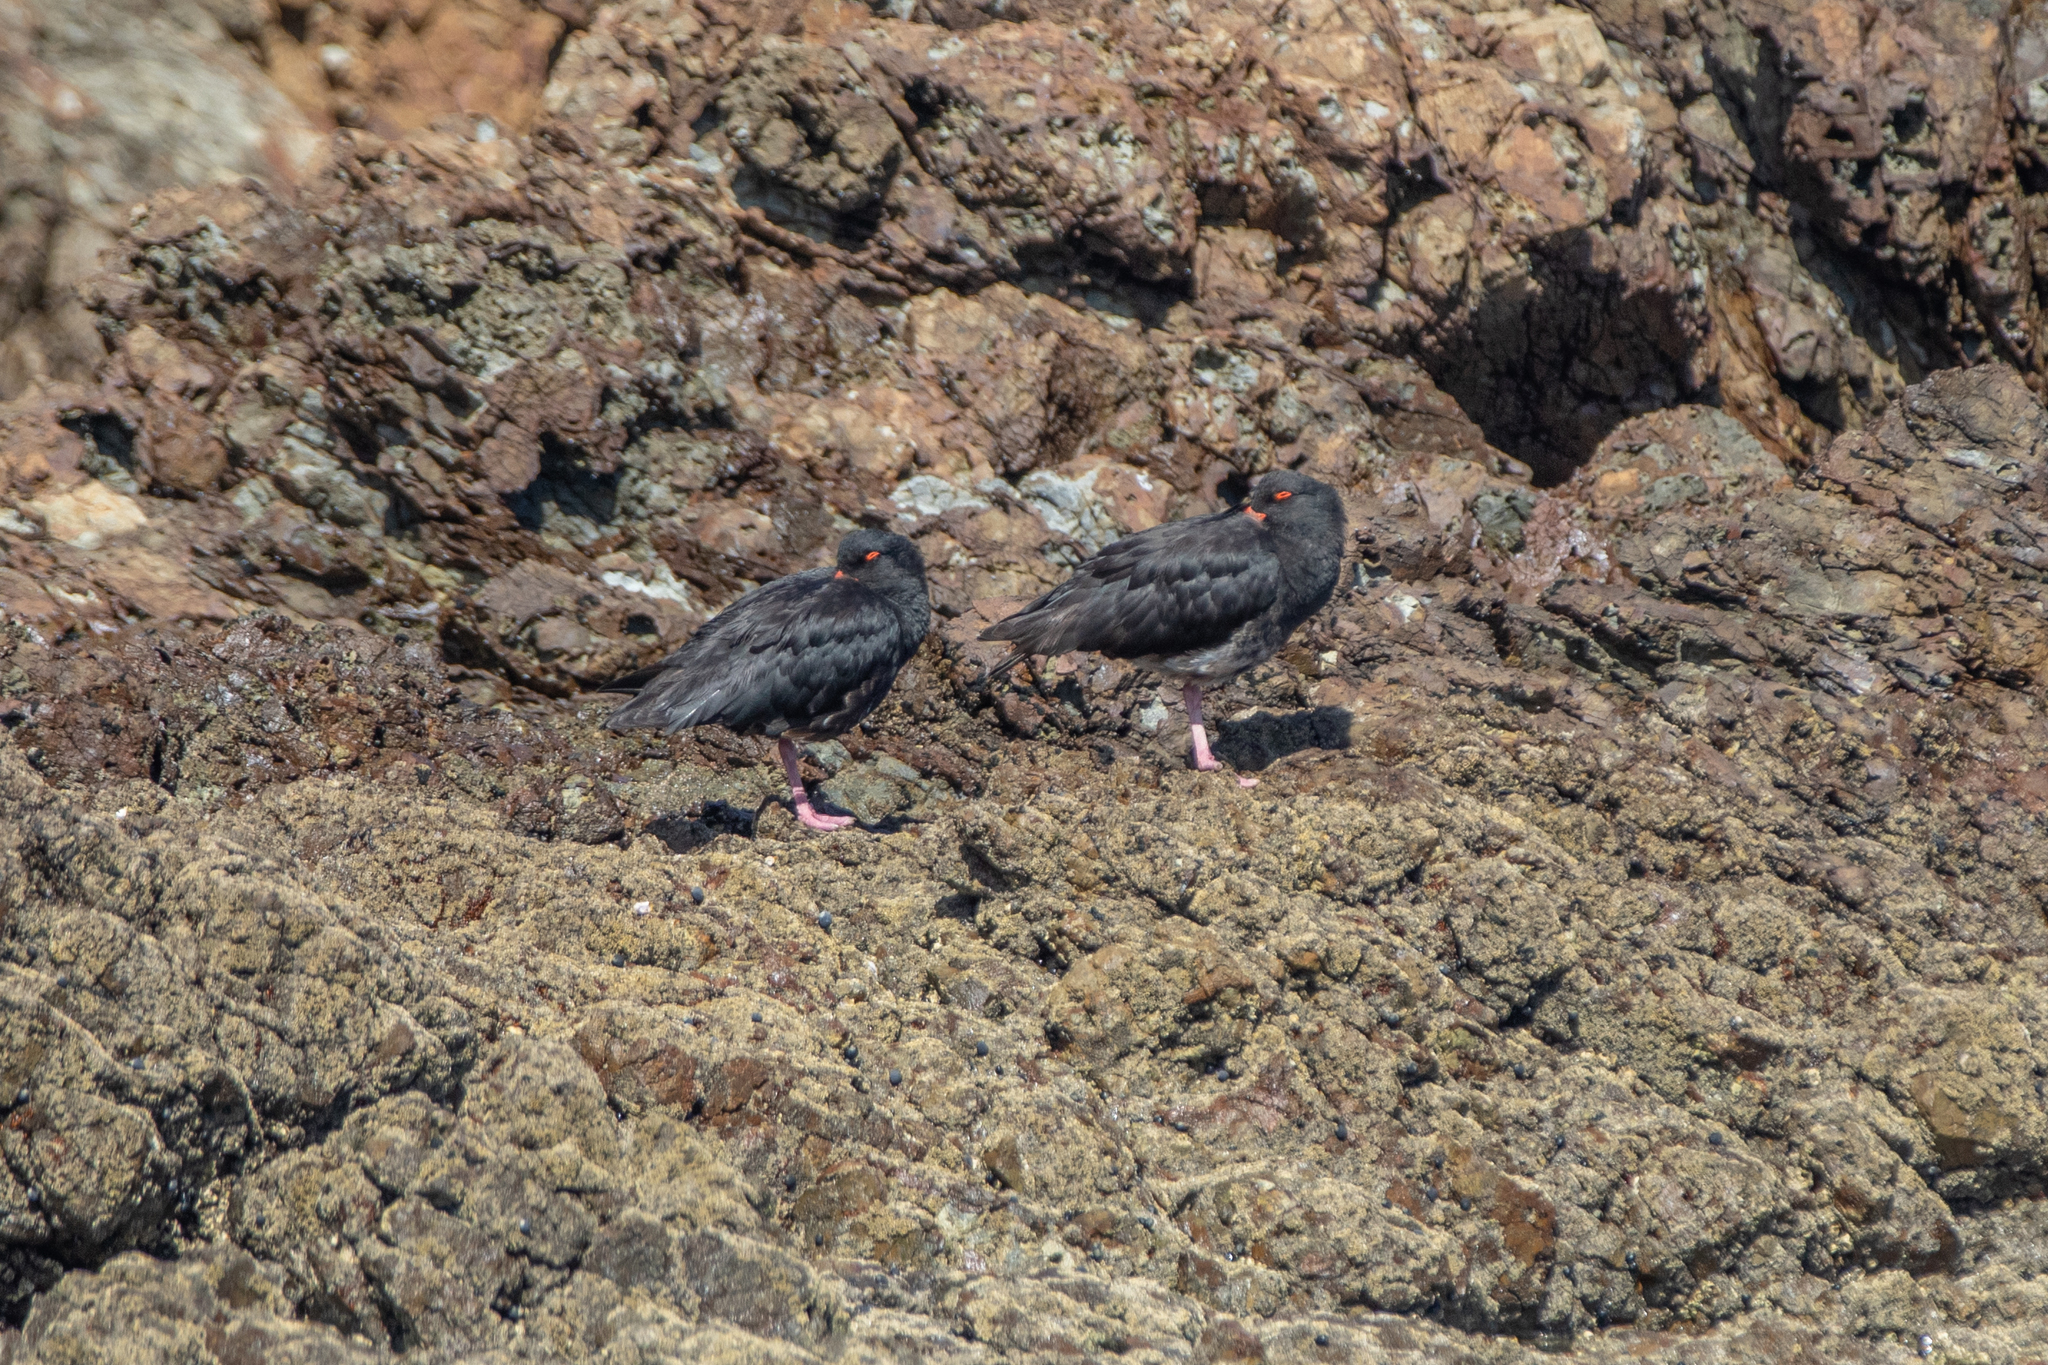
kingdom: Animalia
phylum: Chordata
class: Aves
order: Charadriiformes
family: Haematopodidae
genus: Haematopus
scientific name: Haematopus unicolor
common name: Variable oystercatcher
